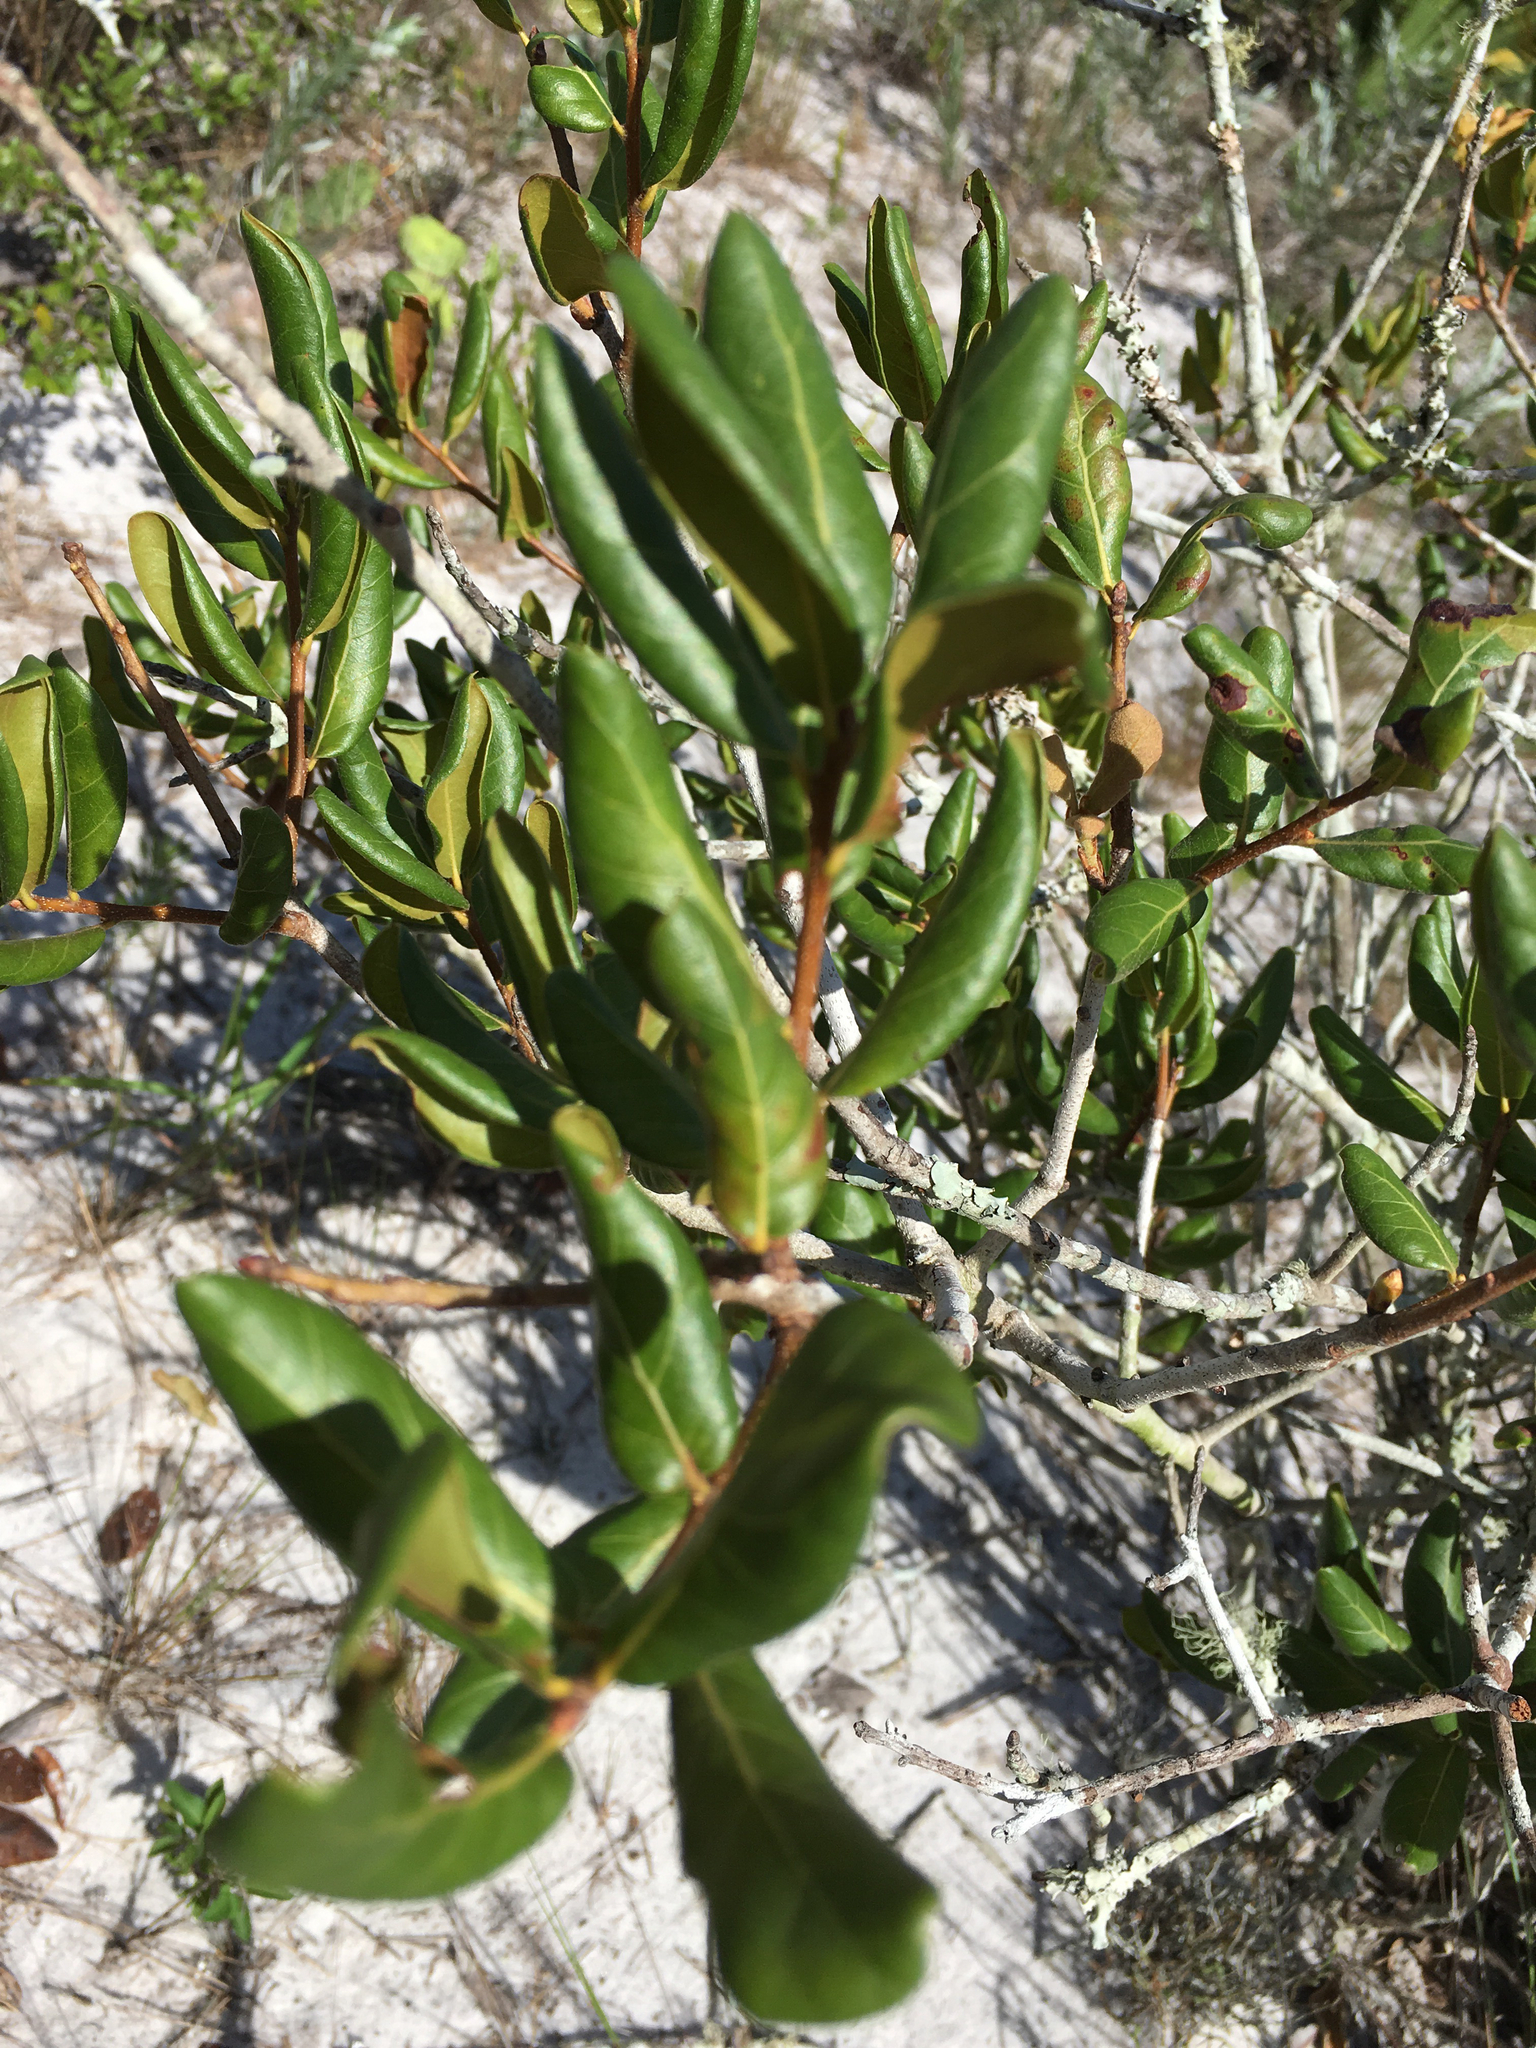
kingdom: Plantae
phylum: Tracheophyta
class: Magnoliopsida
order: Fagales
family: Fagaceae
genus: Quercus
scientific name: Quercus inopina
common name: Sandhill oak
